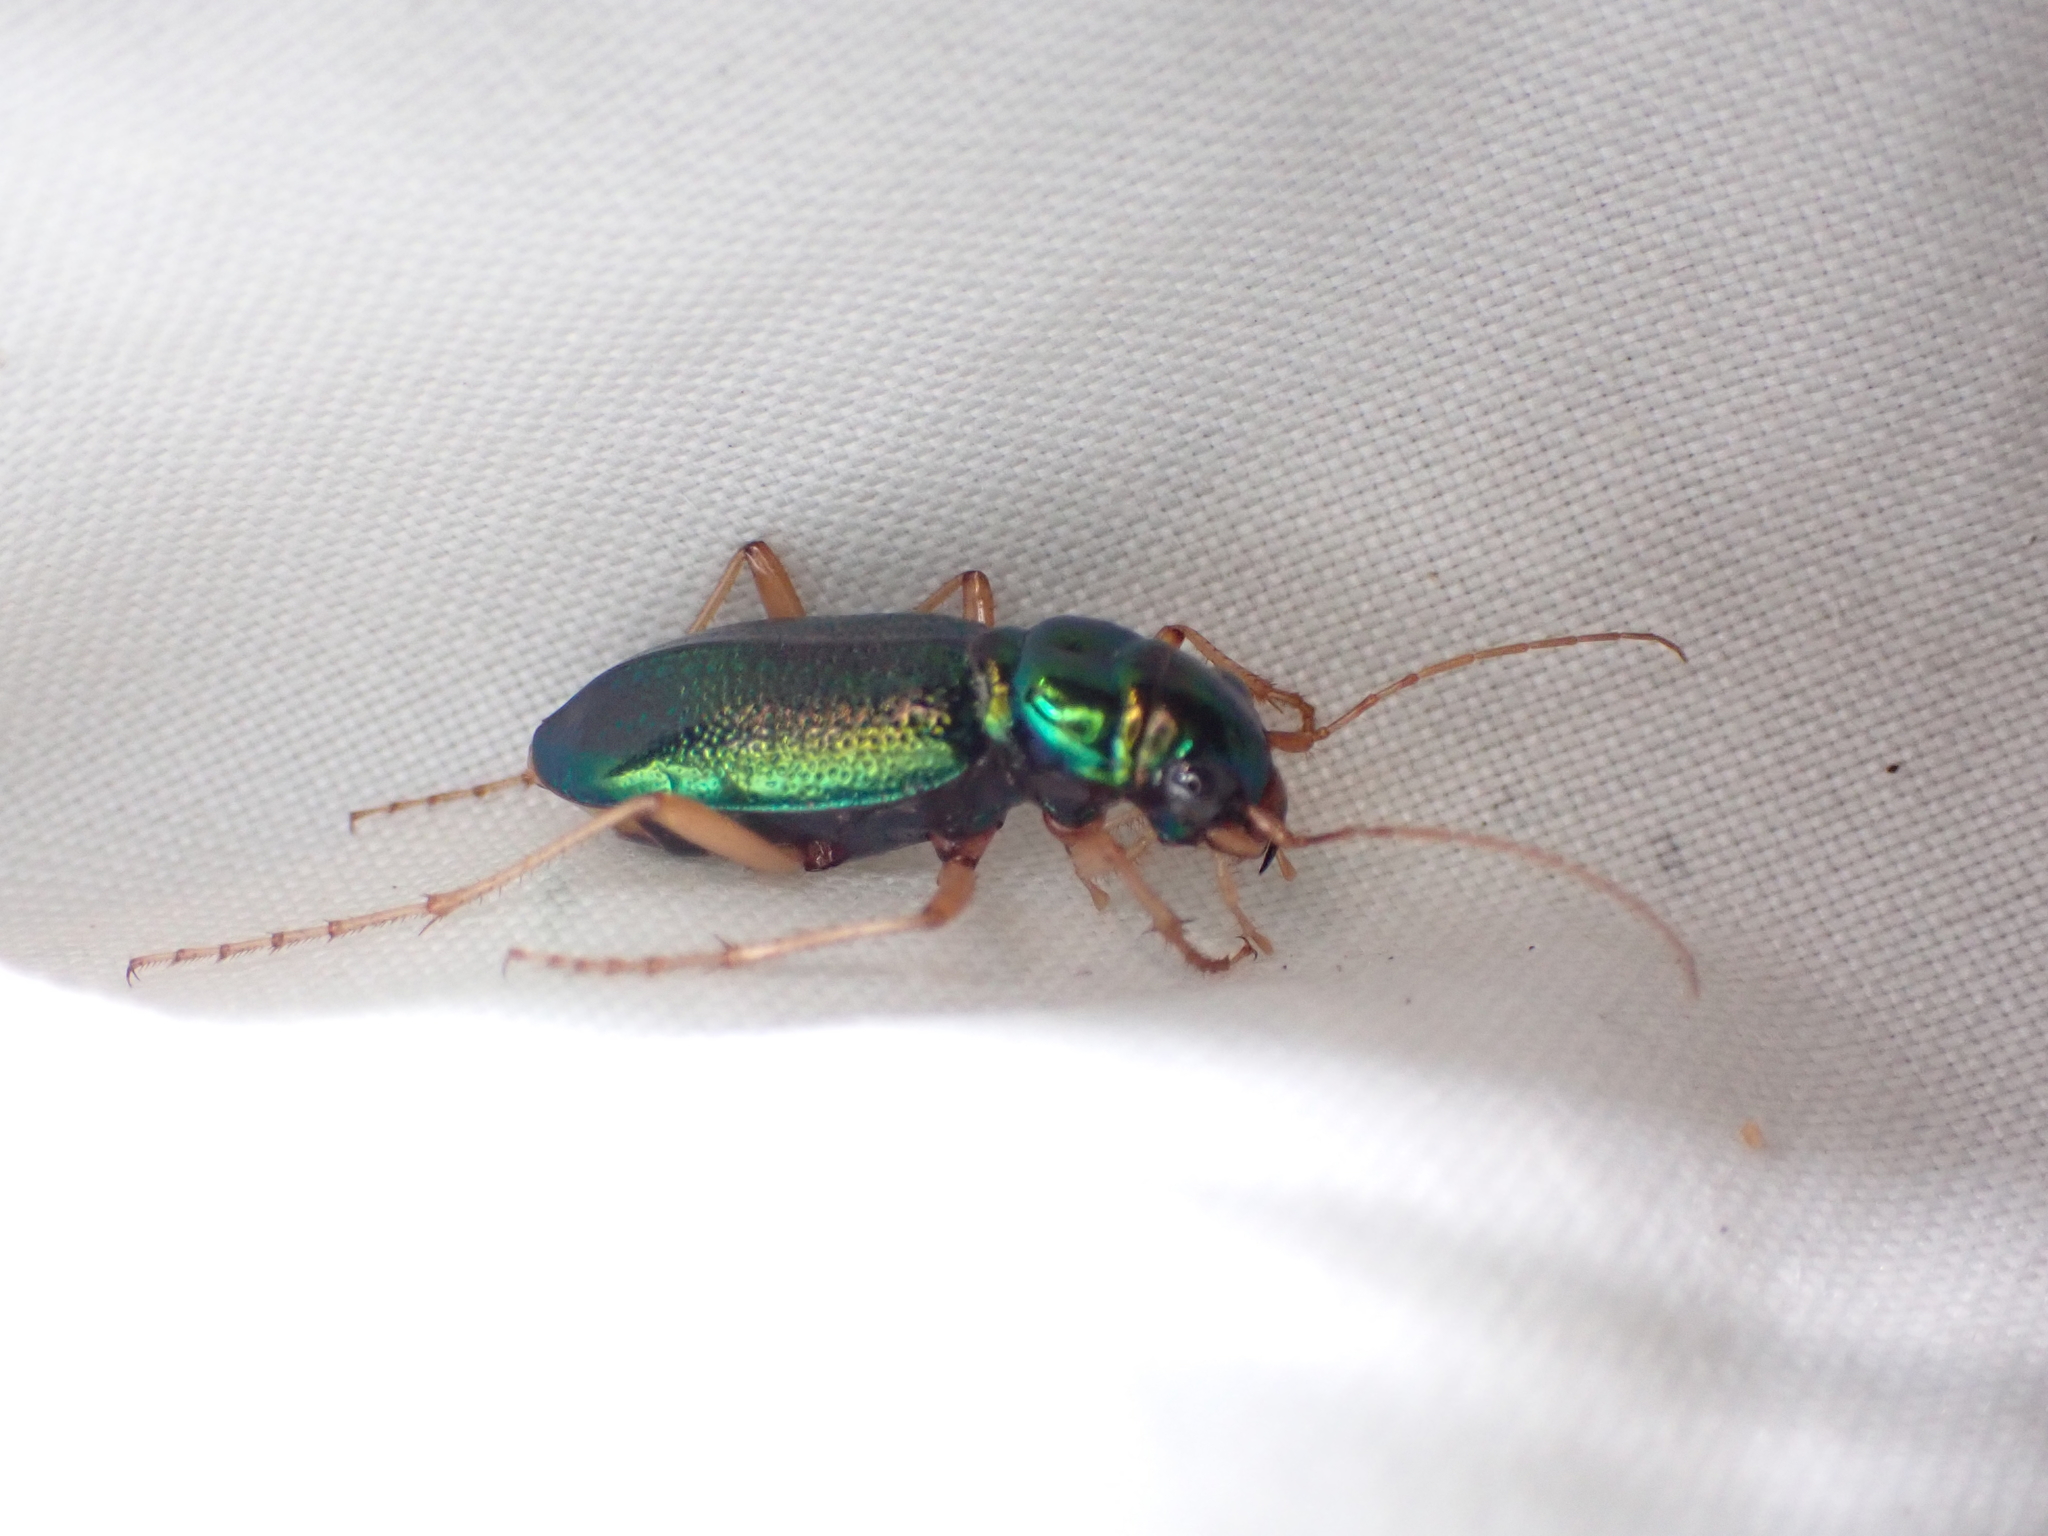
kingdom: Animalia
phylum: Arthropoda
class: Insecta
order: Coleoptera
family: Carabidae
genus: Tetracha
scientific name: Tetracha virginica
